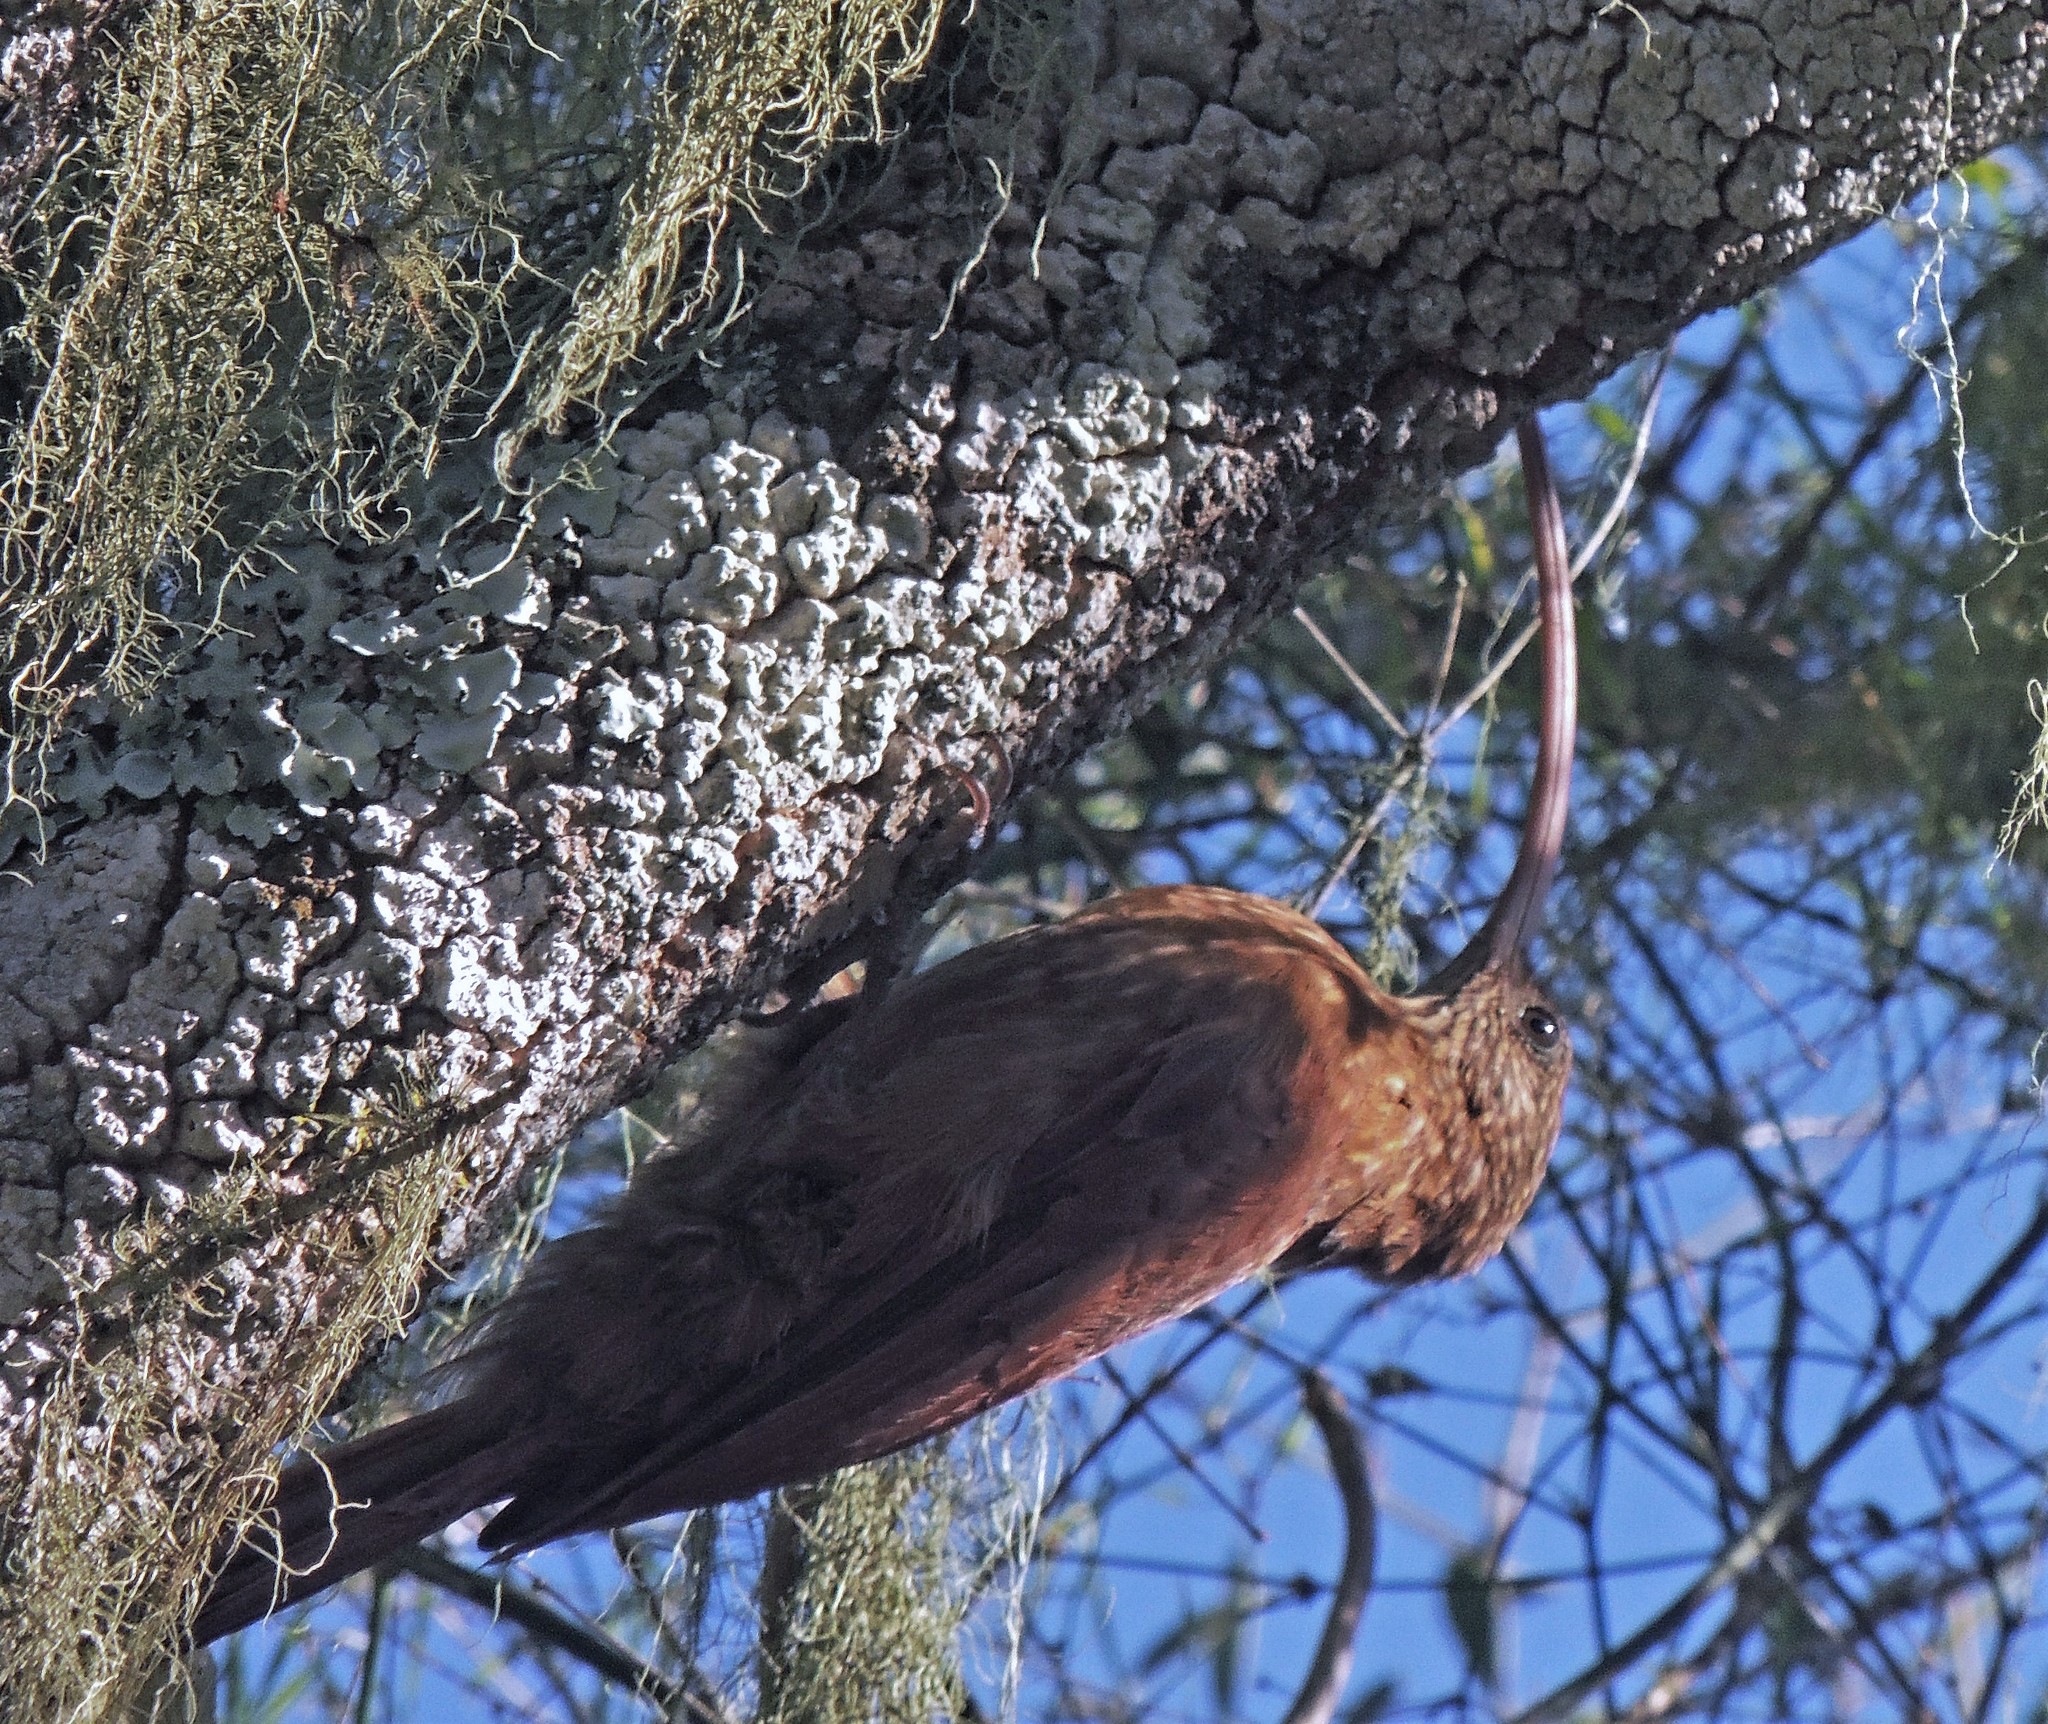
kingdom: Animalia
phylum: Chordata
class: Aves
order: Passeriformes
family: Furnariidae
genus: Campylorhamphus
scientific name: Campylorhamphus trochilirostris
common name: Red-billed scythebill
